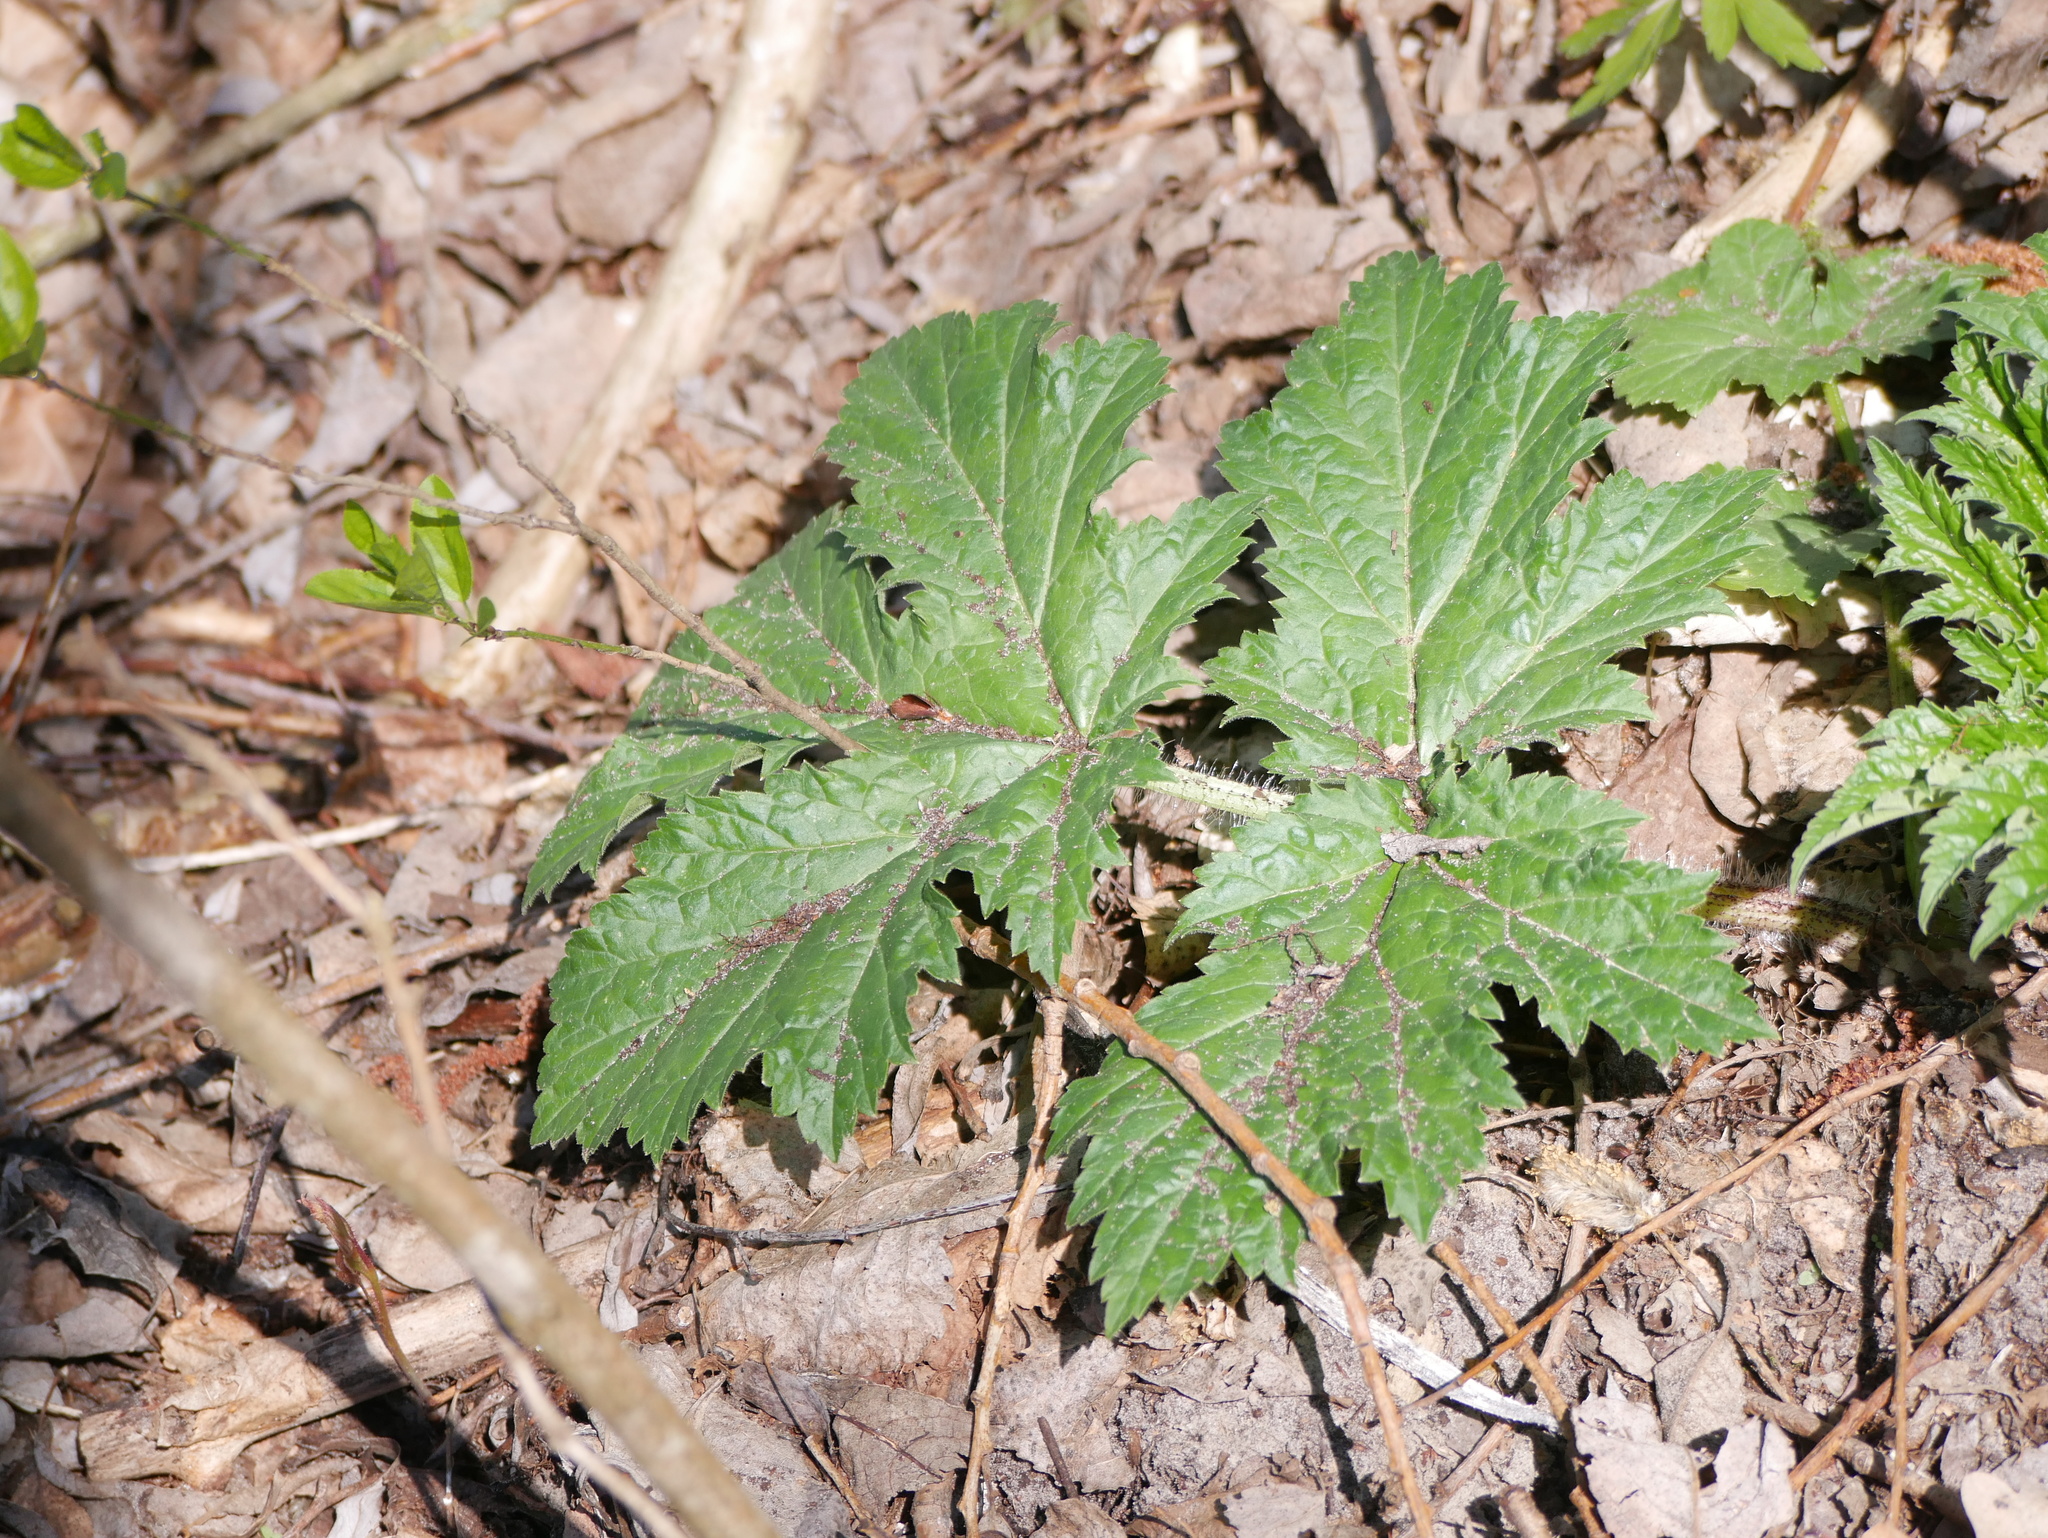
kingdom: Plantae
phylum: Tracheophyta
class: Magnoliopsida
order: Apiales
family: Apiaceae
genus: Heracleum
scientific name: Heracleum mantegazzianum
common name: Giant hogweed
